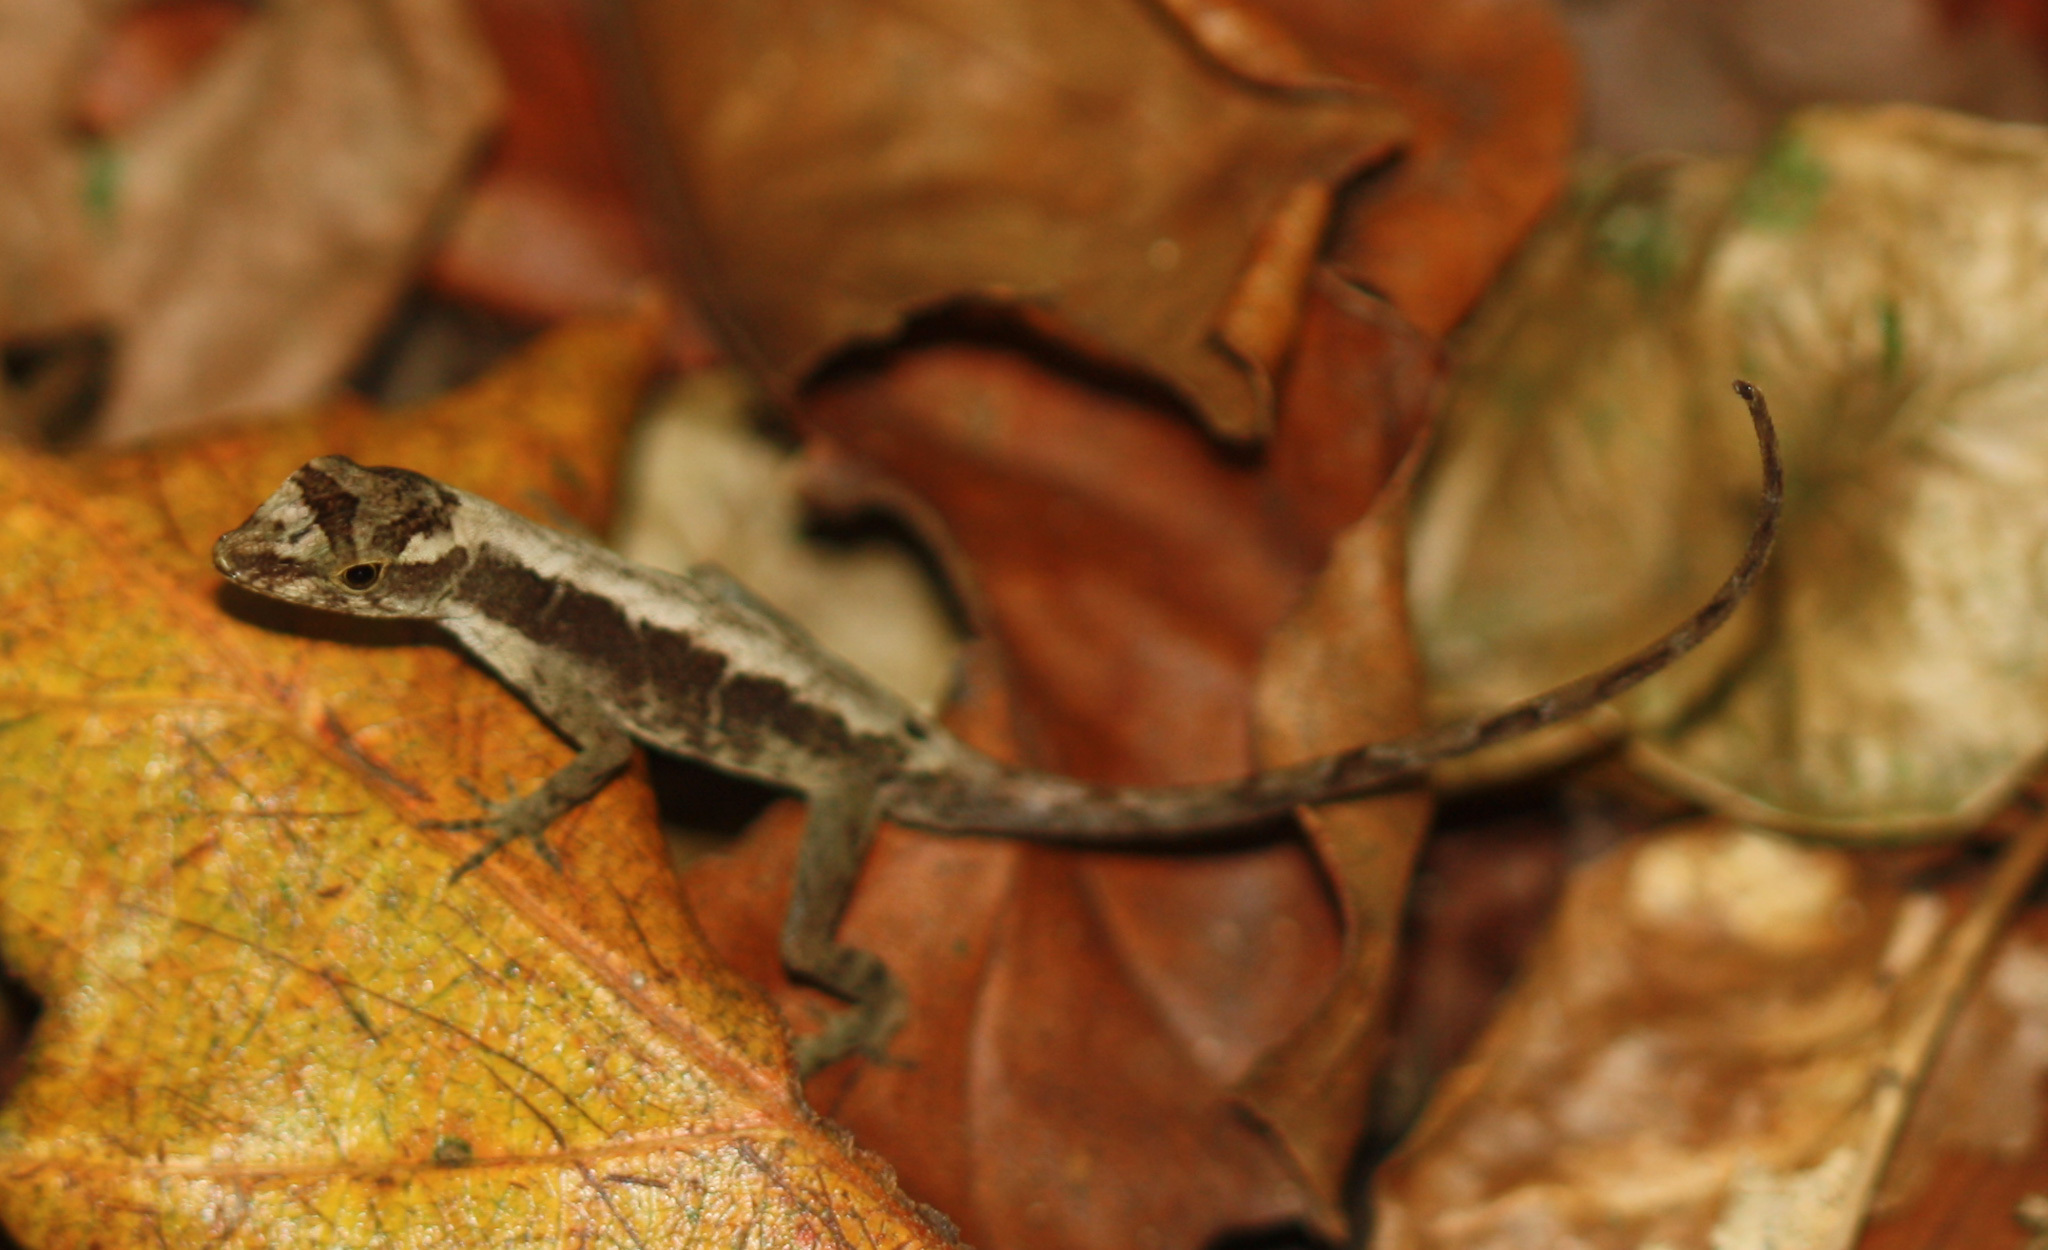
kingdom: Animalia
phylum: Chordata
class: Squamata
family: Dactyloidae
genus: Anolis
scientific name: Anolis humilis
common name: Humble anole
